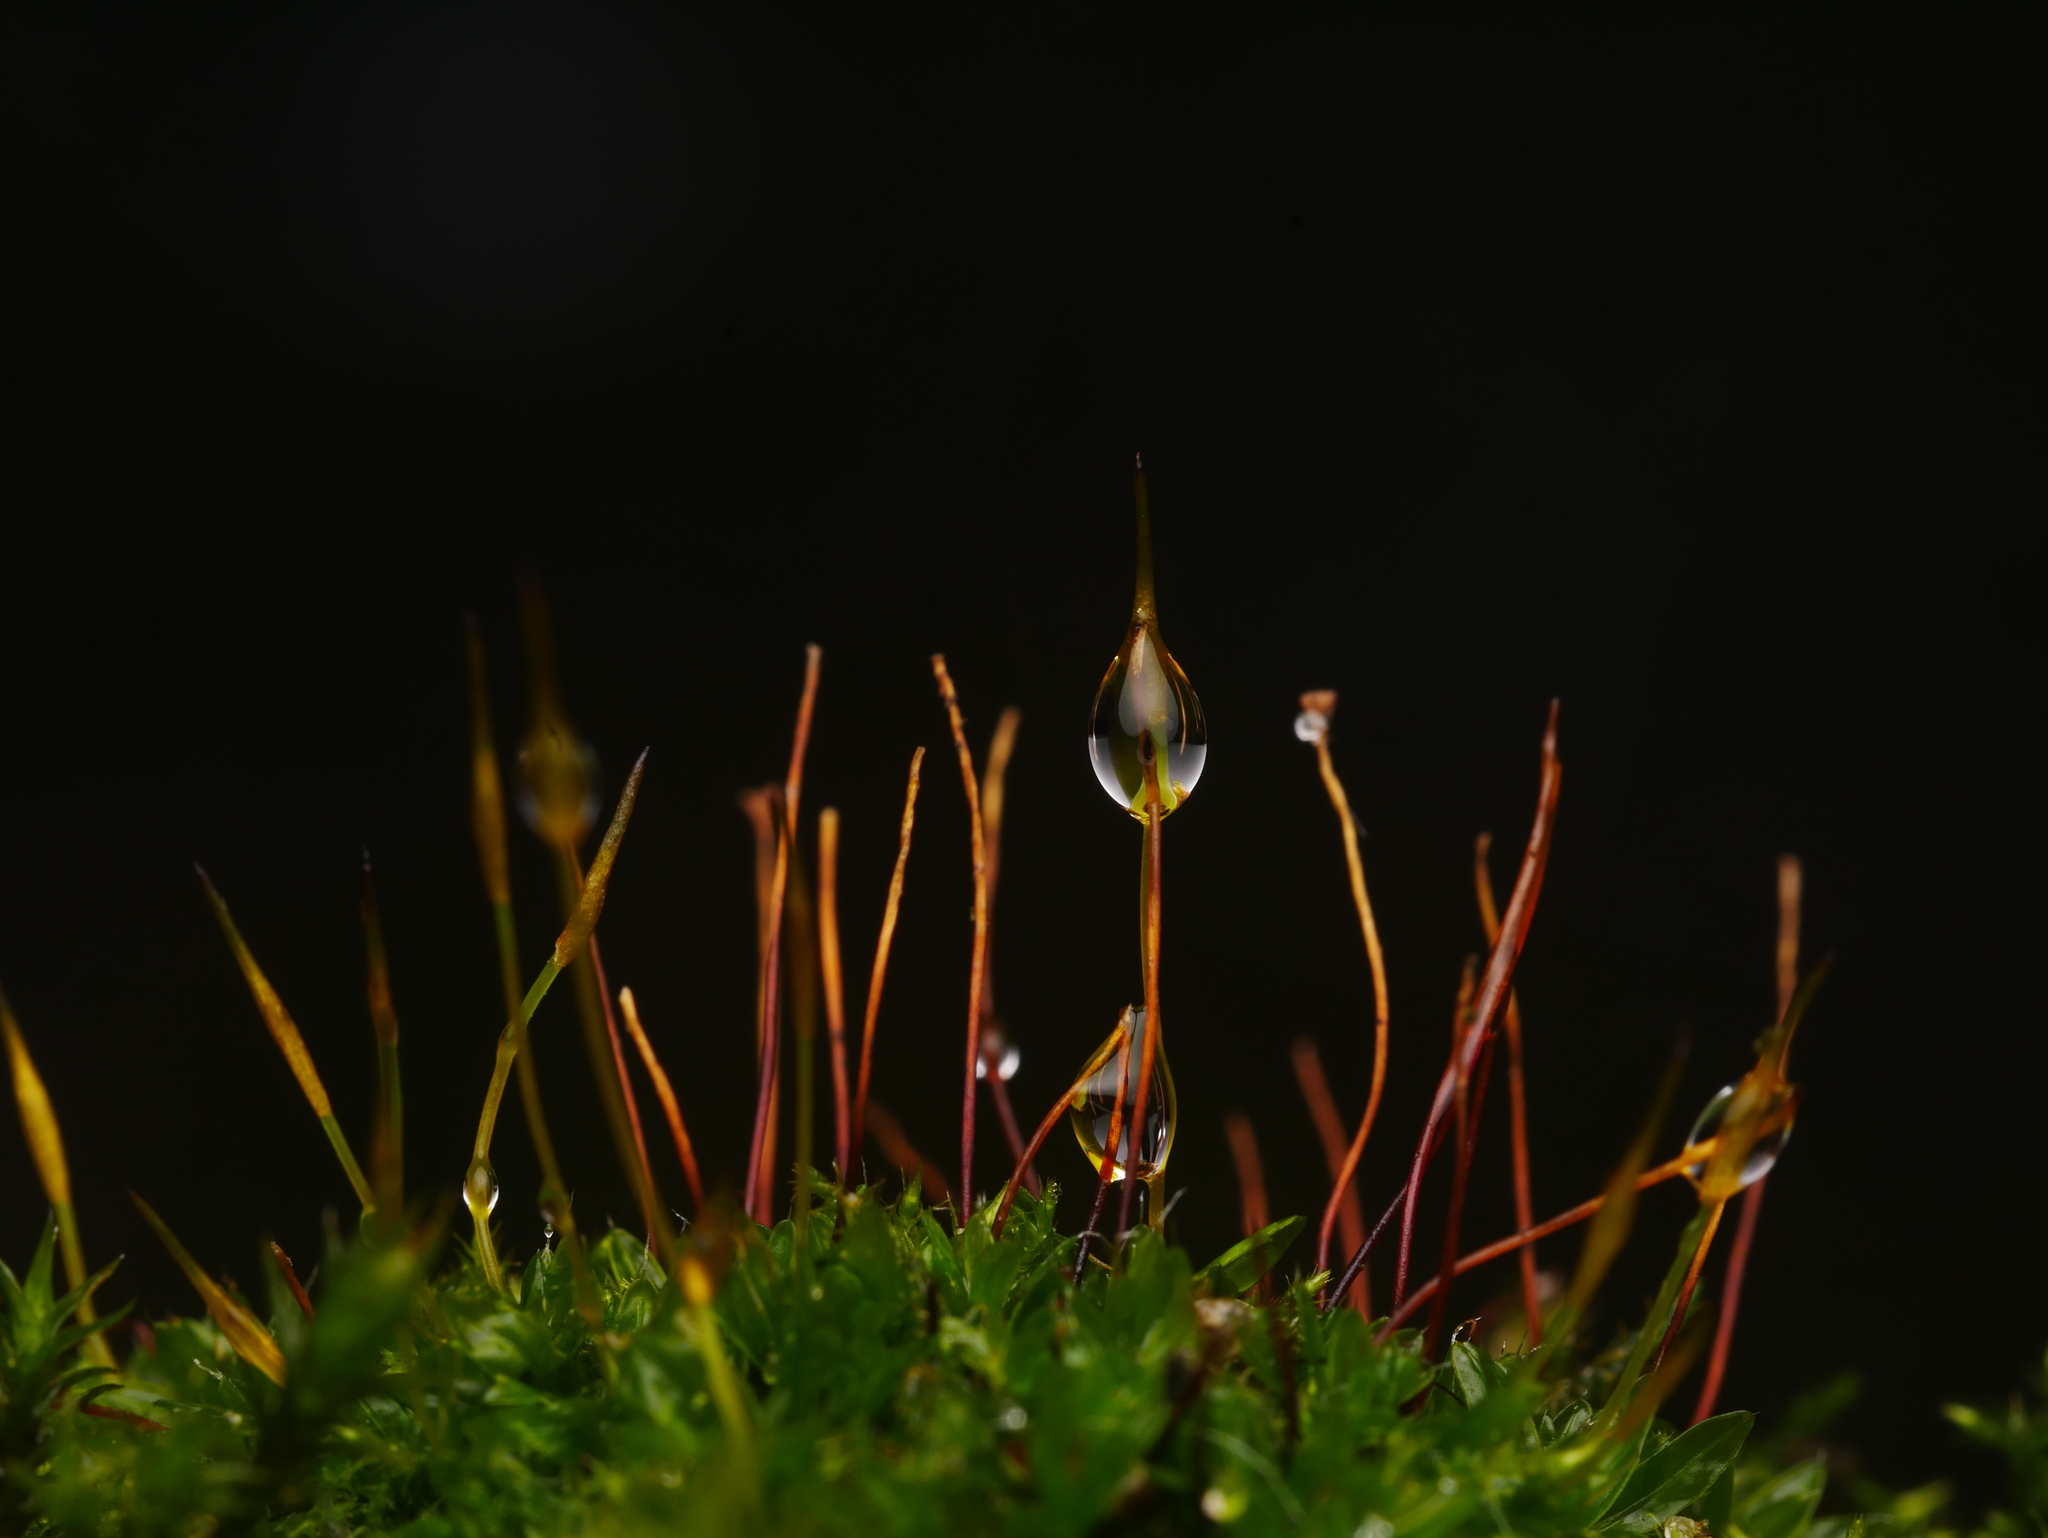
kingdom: Plantae
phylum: Bryophyta
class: Bryopsida
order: Pottiales
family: Pottiaceae
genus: Tortula
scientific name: Tortula muralis
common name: Wall screw-moss
